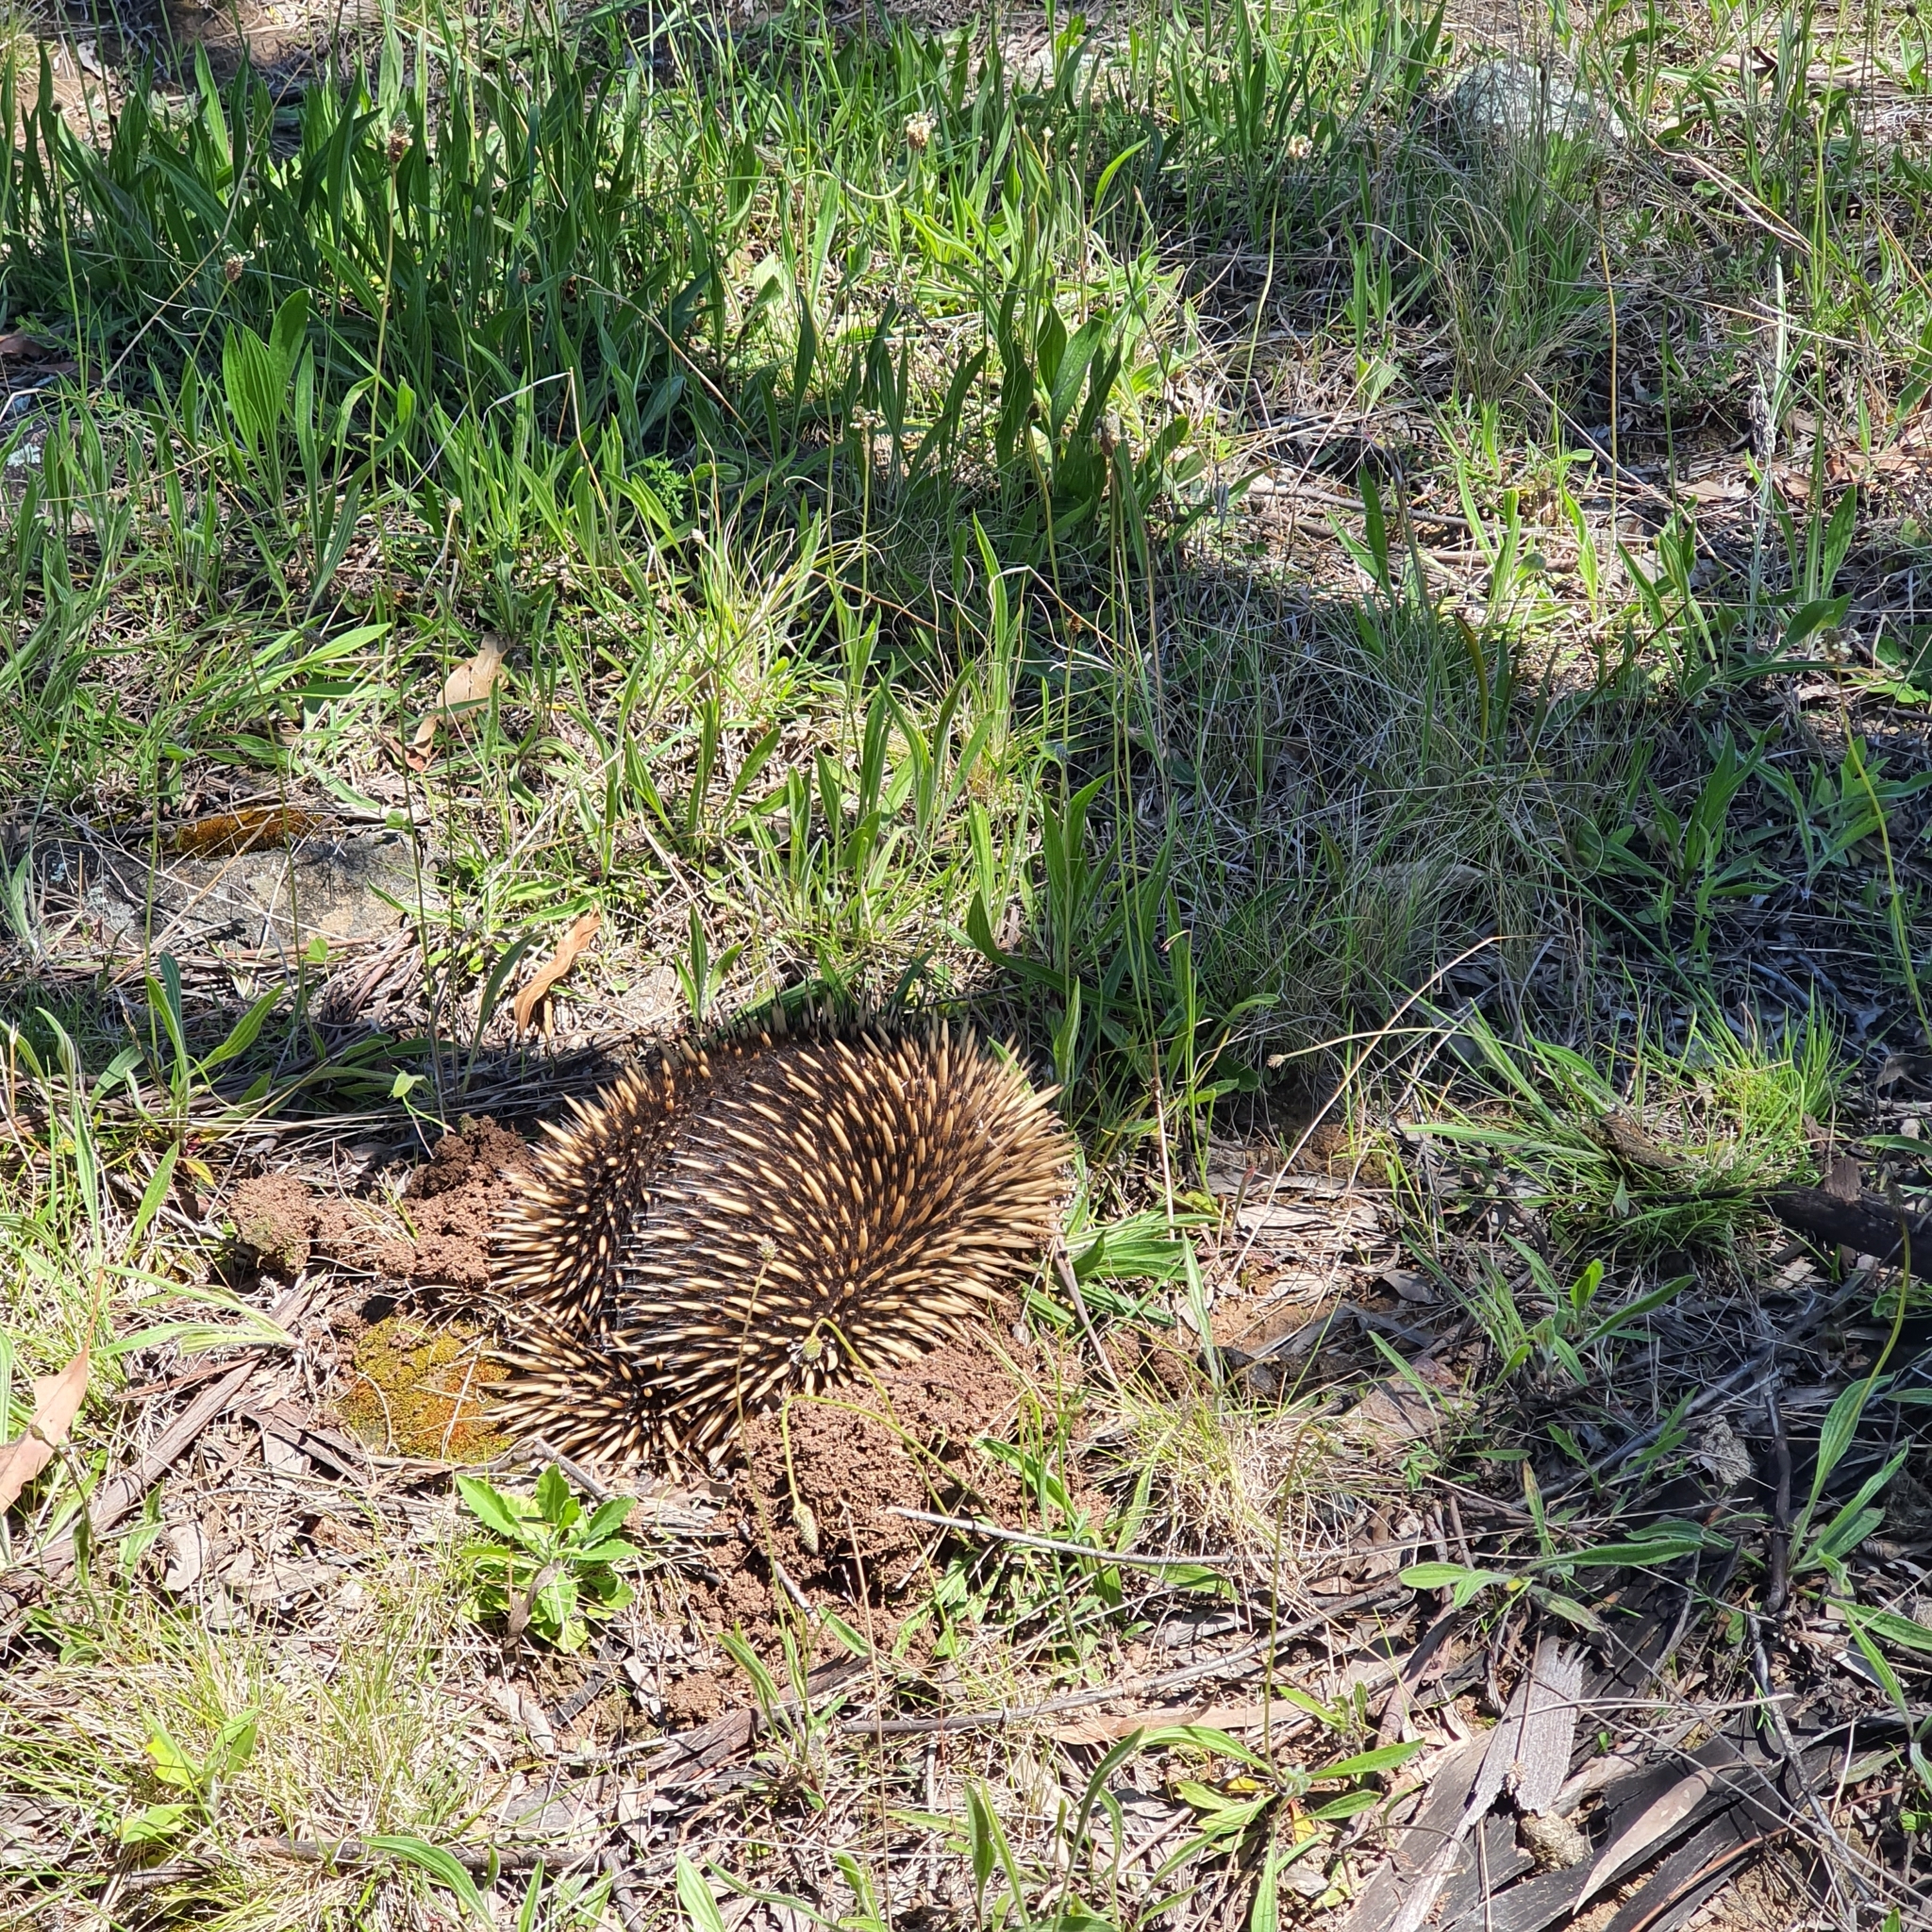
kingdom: Animalia
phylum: Chordata
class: Mammalia
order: Monotremata
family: Tachyglossidae
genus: Tachyglossus
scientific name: Tachyglossus aculeatus
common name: Short-beaked echidna
